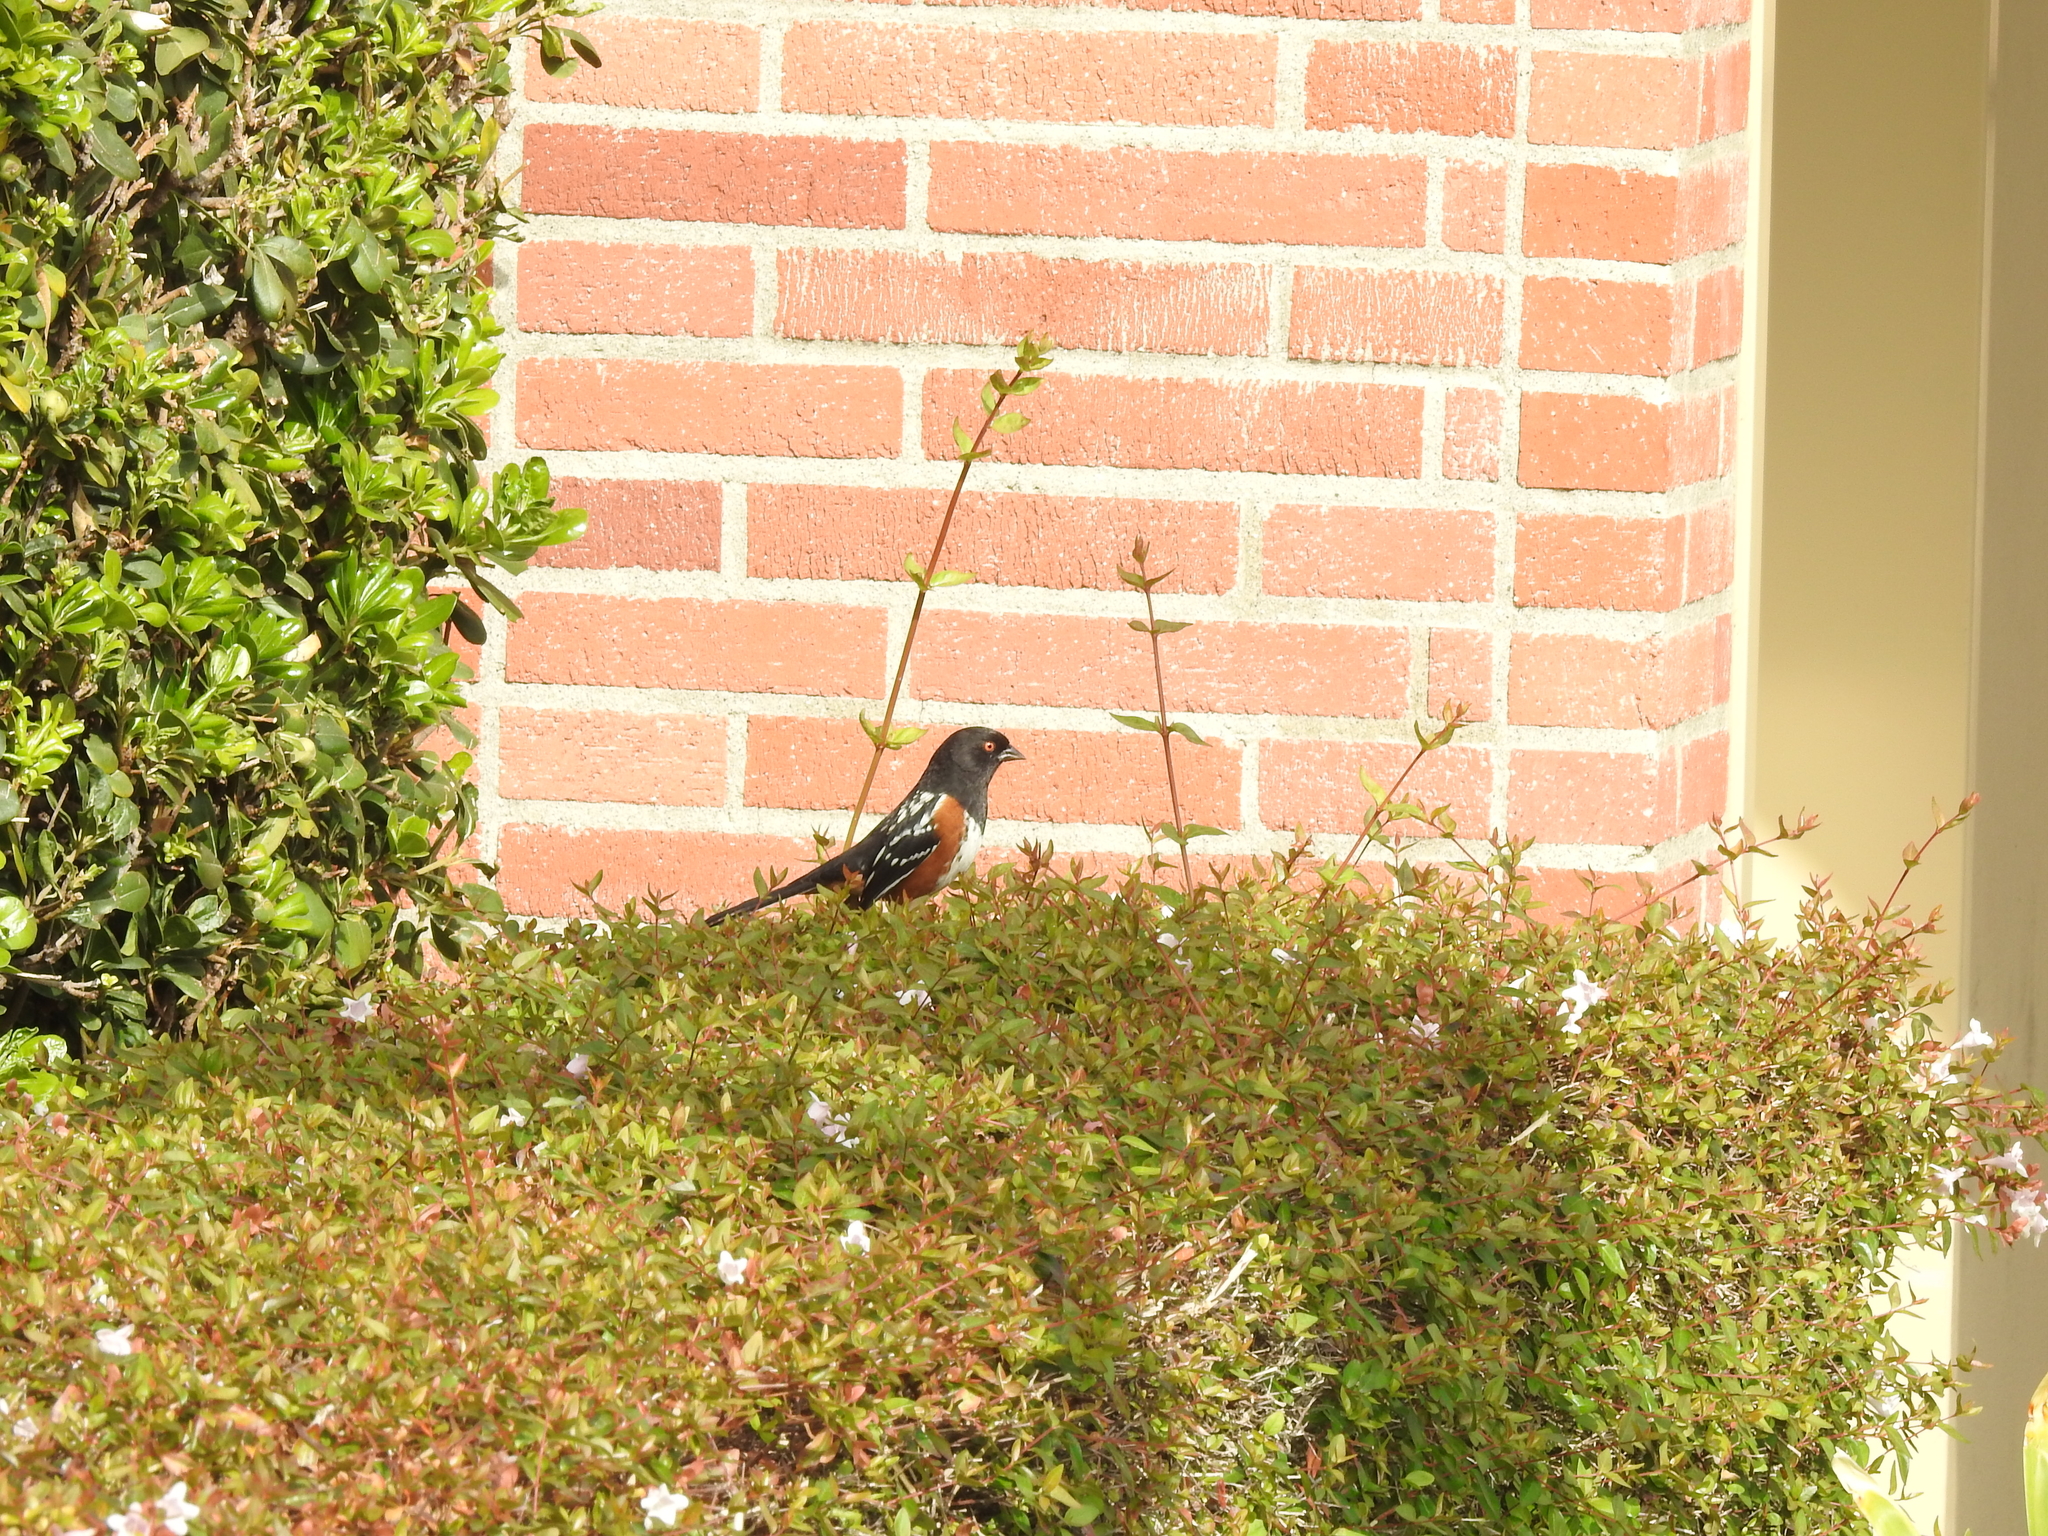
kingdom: Animalia
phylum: Chordata
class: Aves
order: Passeriformes
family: Passerellidae
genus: Pipilo
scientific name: Pipilo maculatus
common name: Spotted towhee
